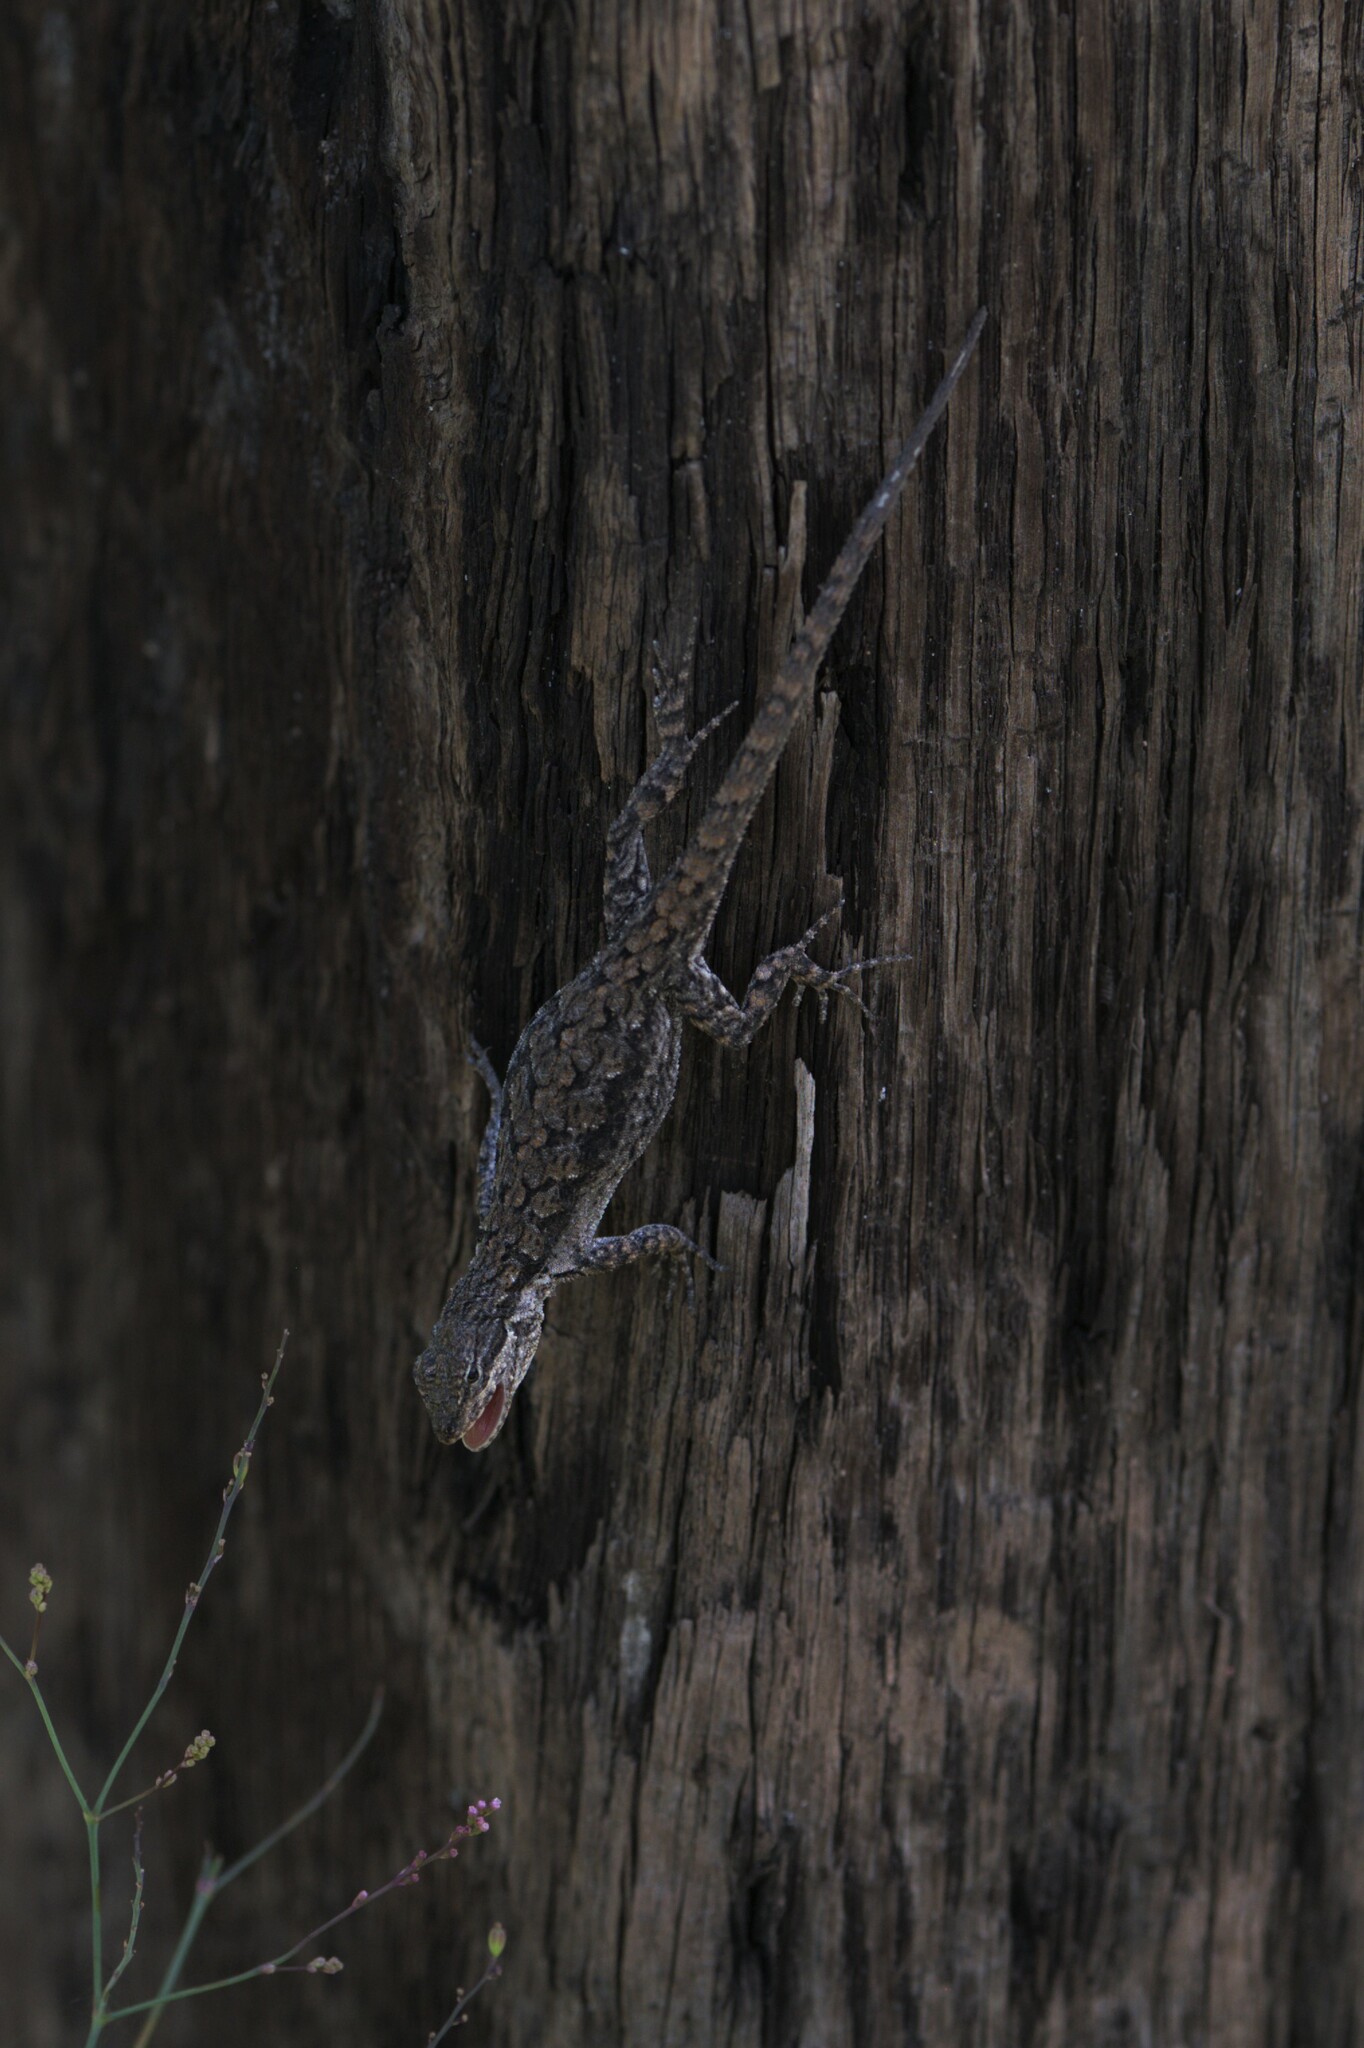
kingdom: Animalia
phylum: Chordata
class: Squamata
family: Phrynosomatidae
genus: Urosaurus
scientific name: Urosaurus ornatus
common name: Ornate tree lizard
